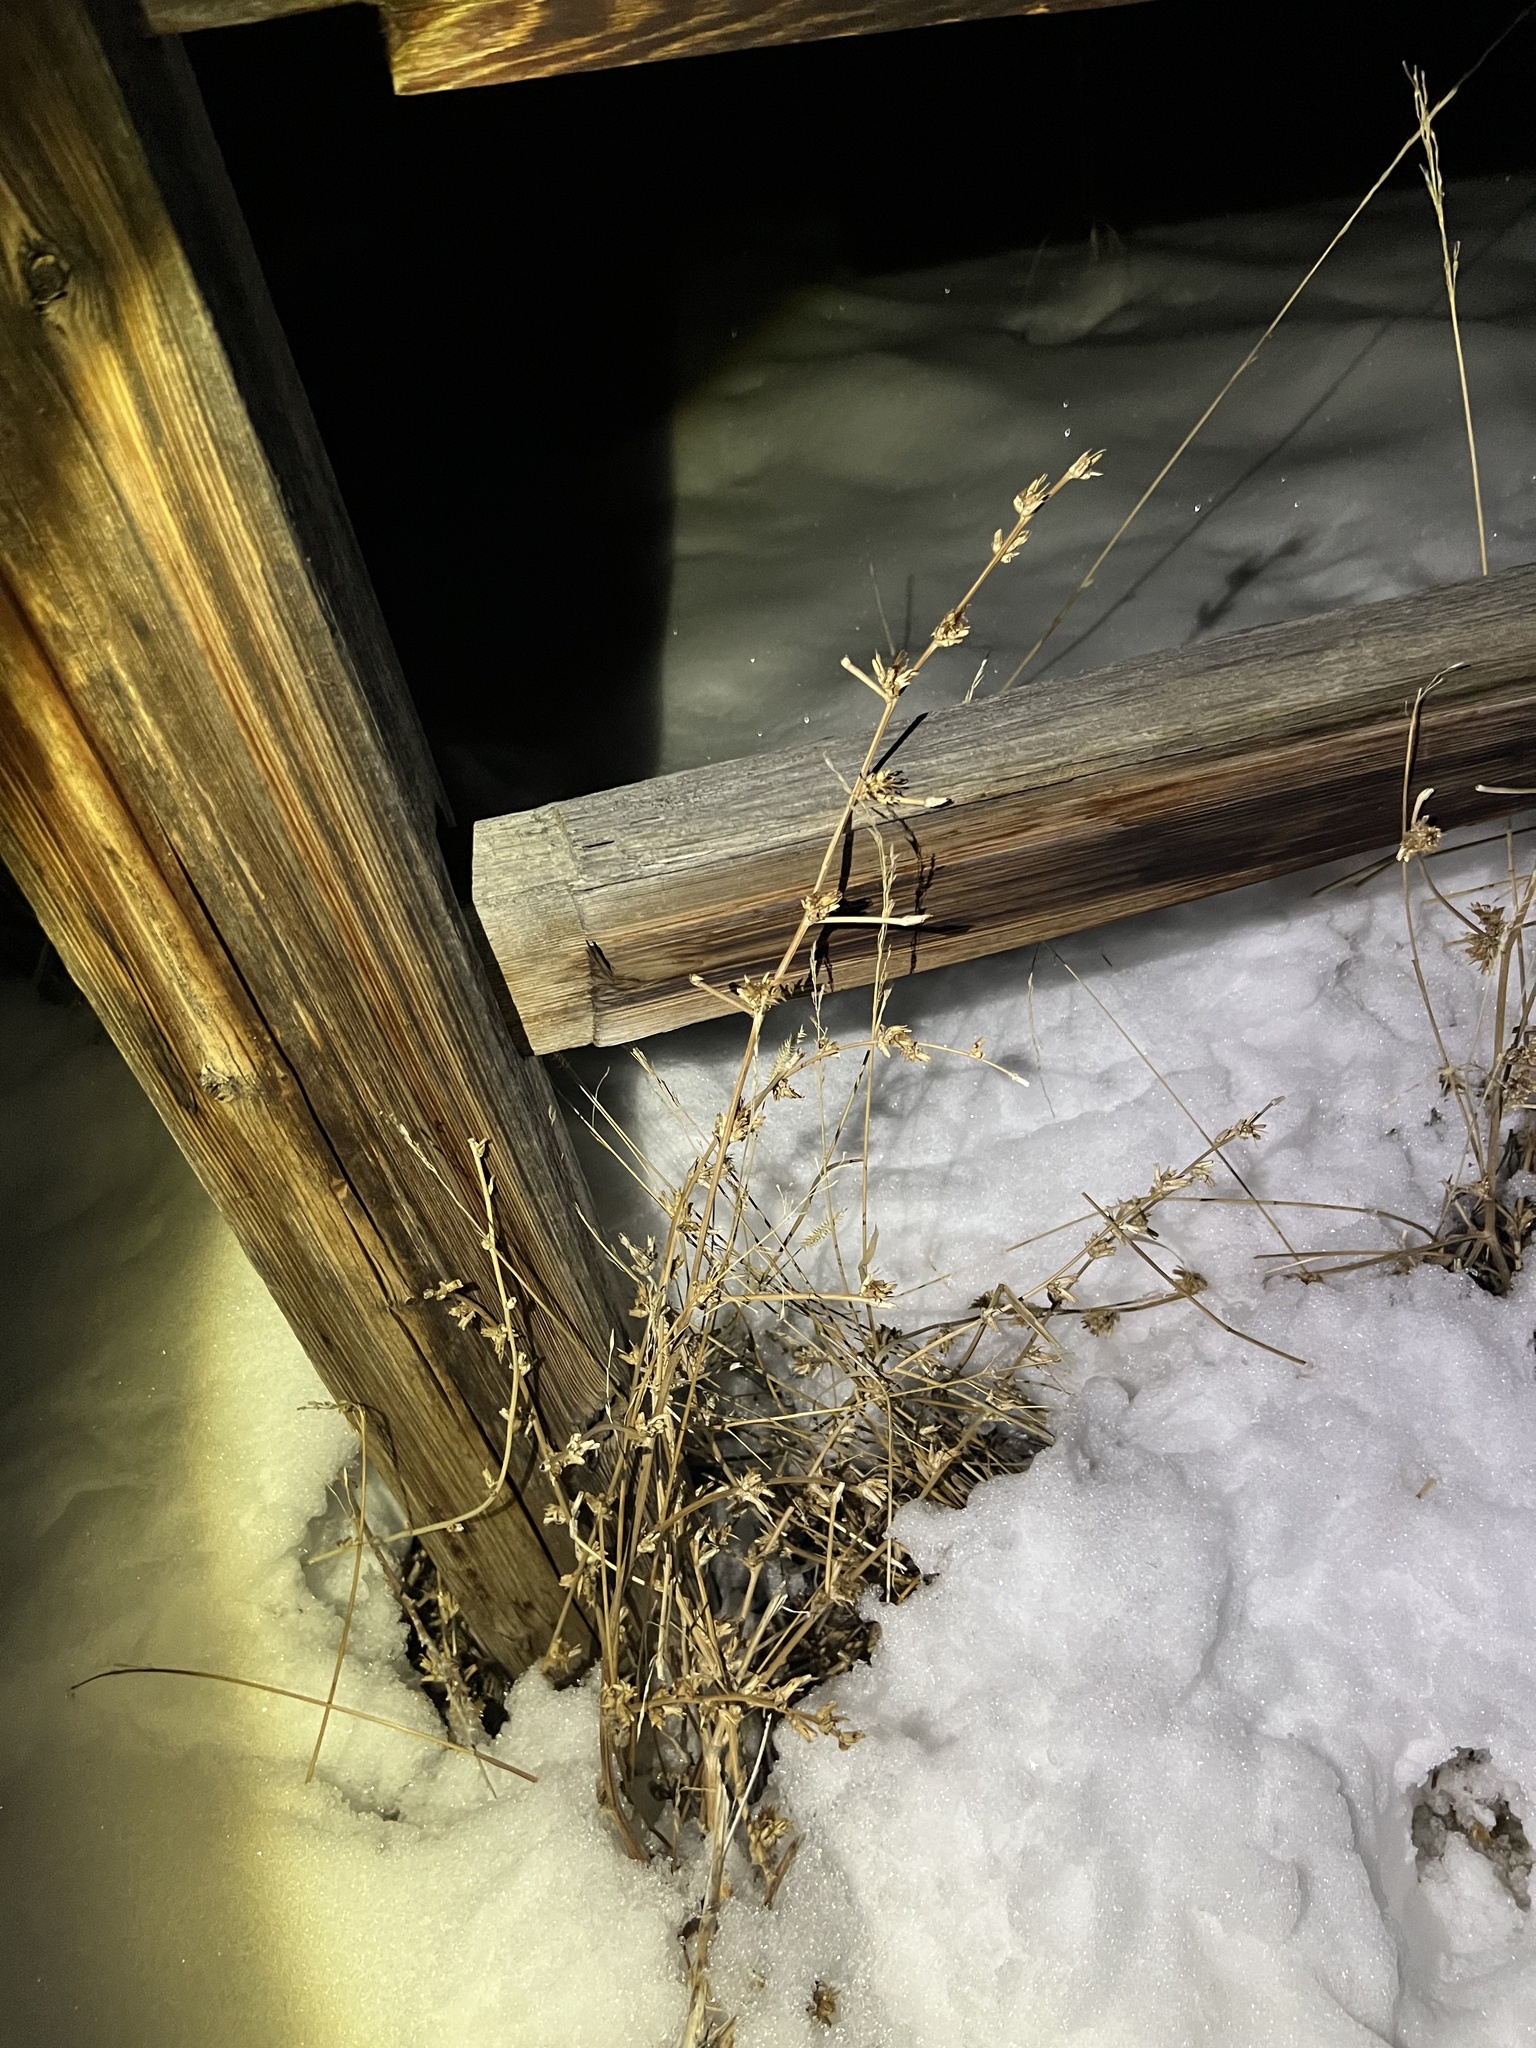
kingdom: Plantae
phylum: Tracheophyta
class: Magnoliopsida
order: Asterales
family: Asteraceae
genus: Cichorium
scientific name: Cichorium intybus
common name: Chicory
